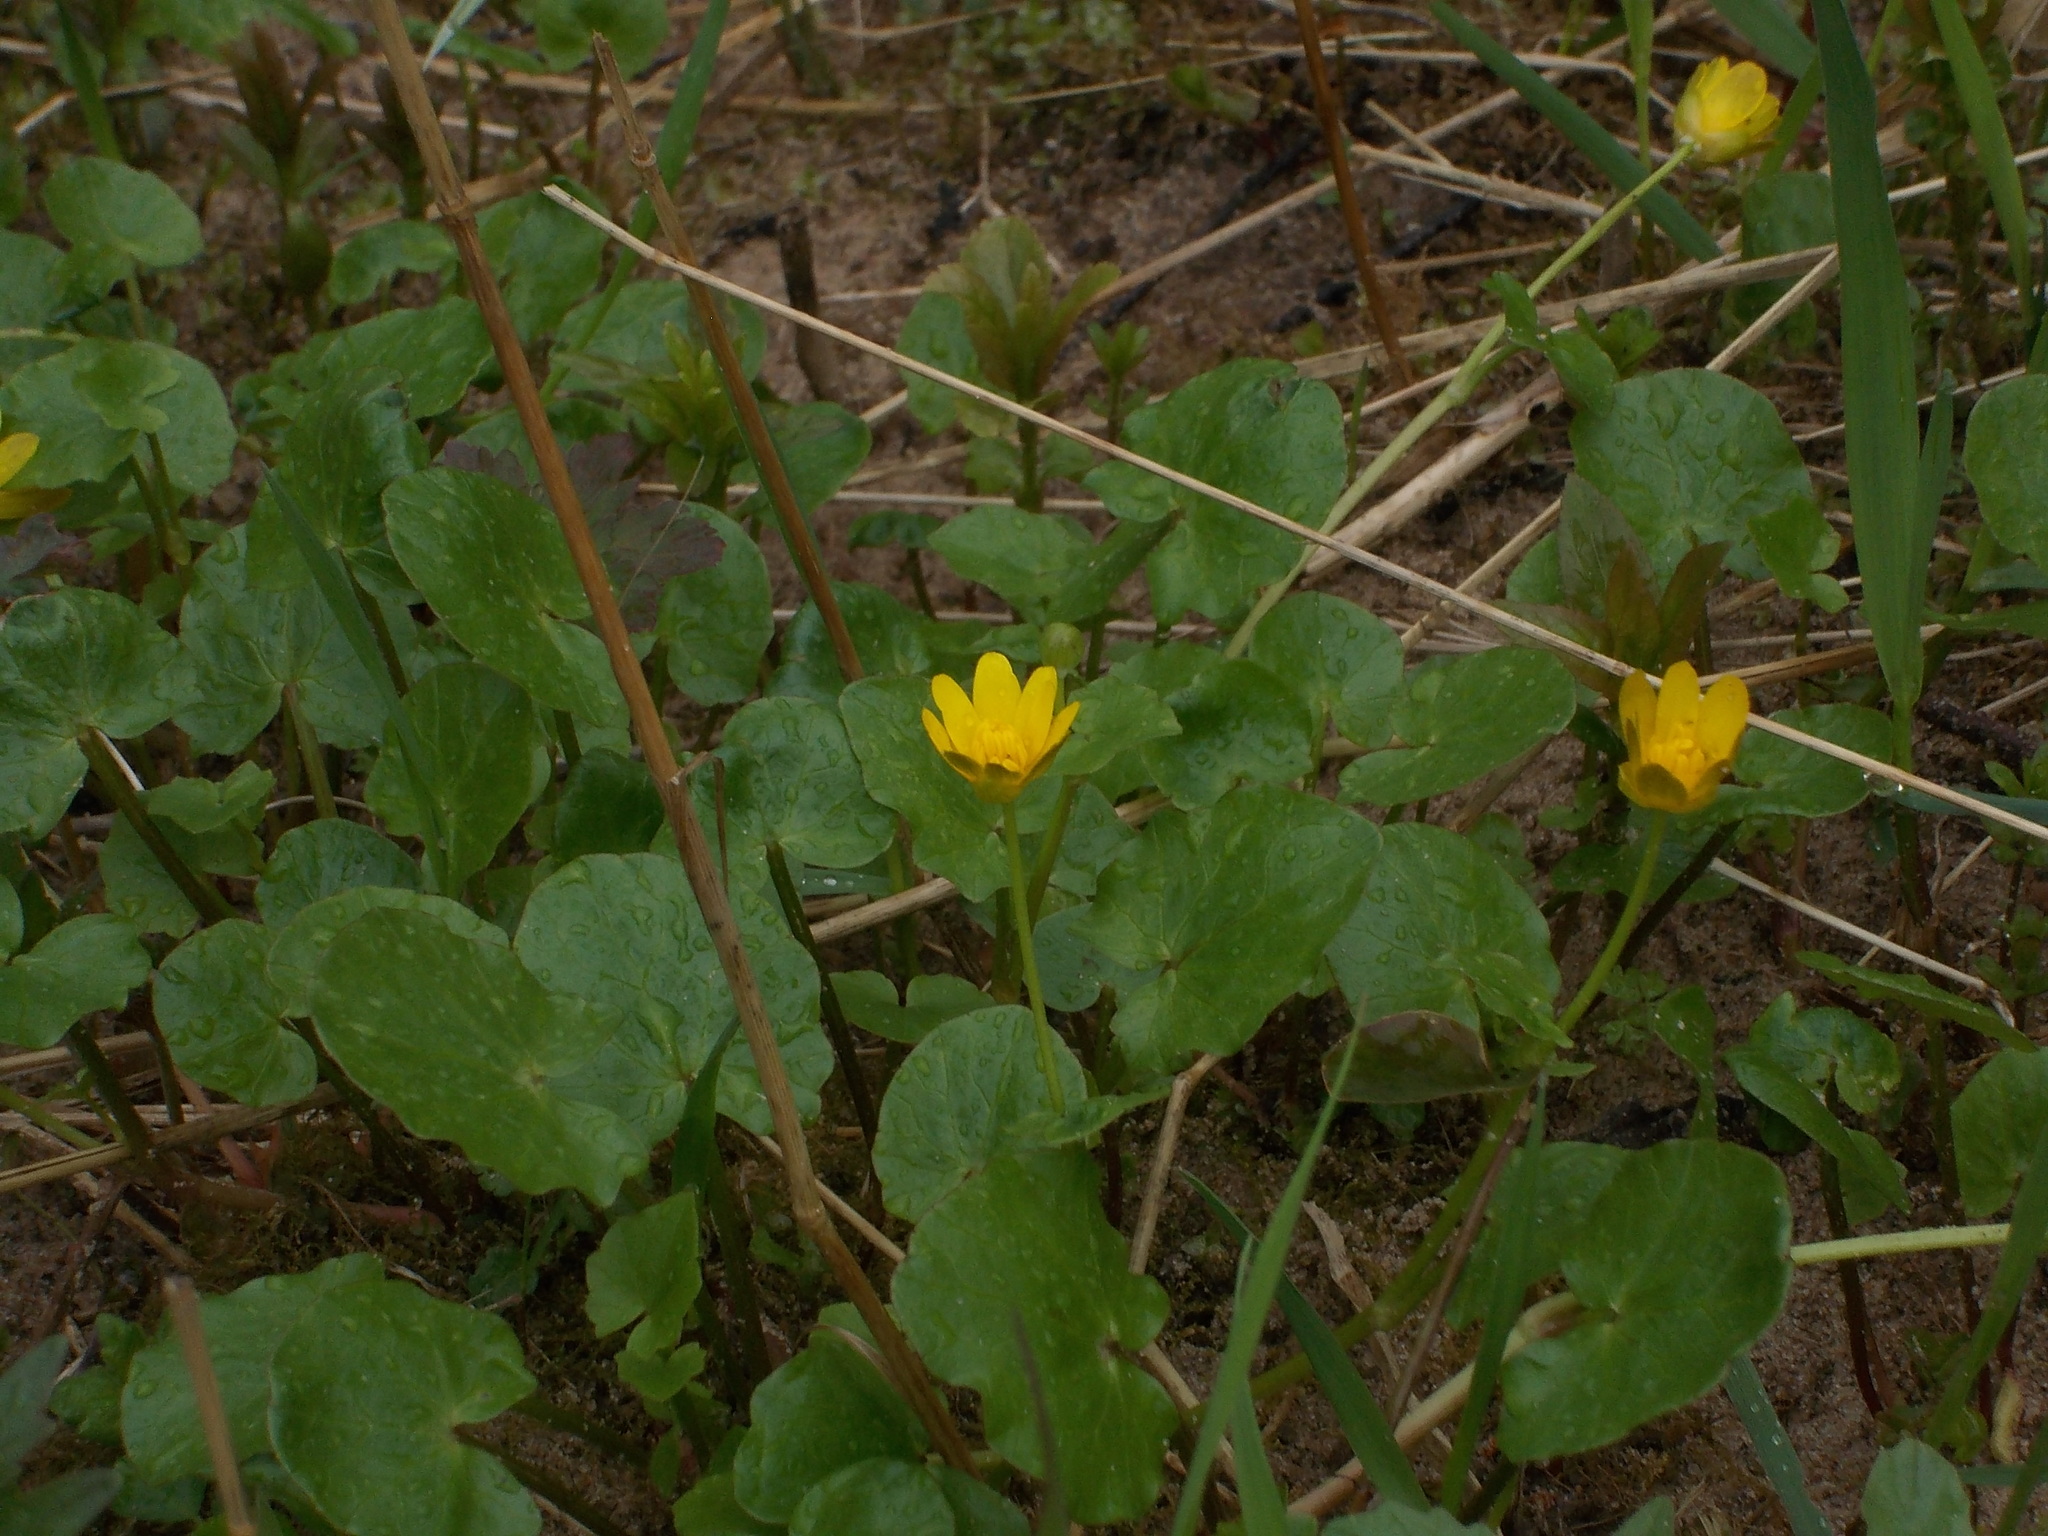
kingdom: Plantae
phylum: Tracheophyta
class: Magnoliopsida
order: Ranunculales
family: Ranunculaceae
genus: Ficaria
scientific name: Ficaria verna
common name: Lesser celandine
